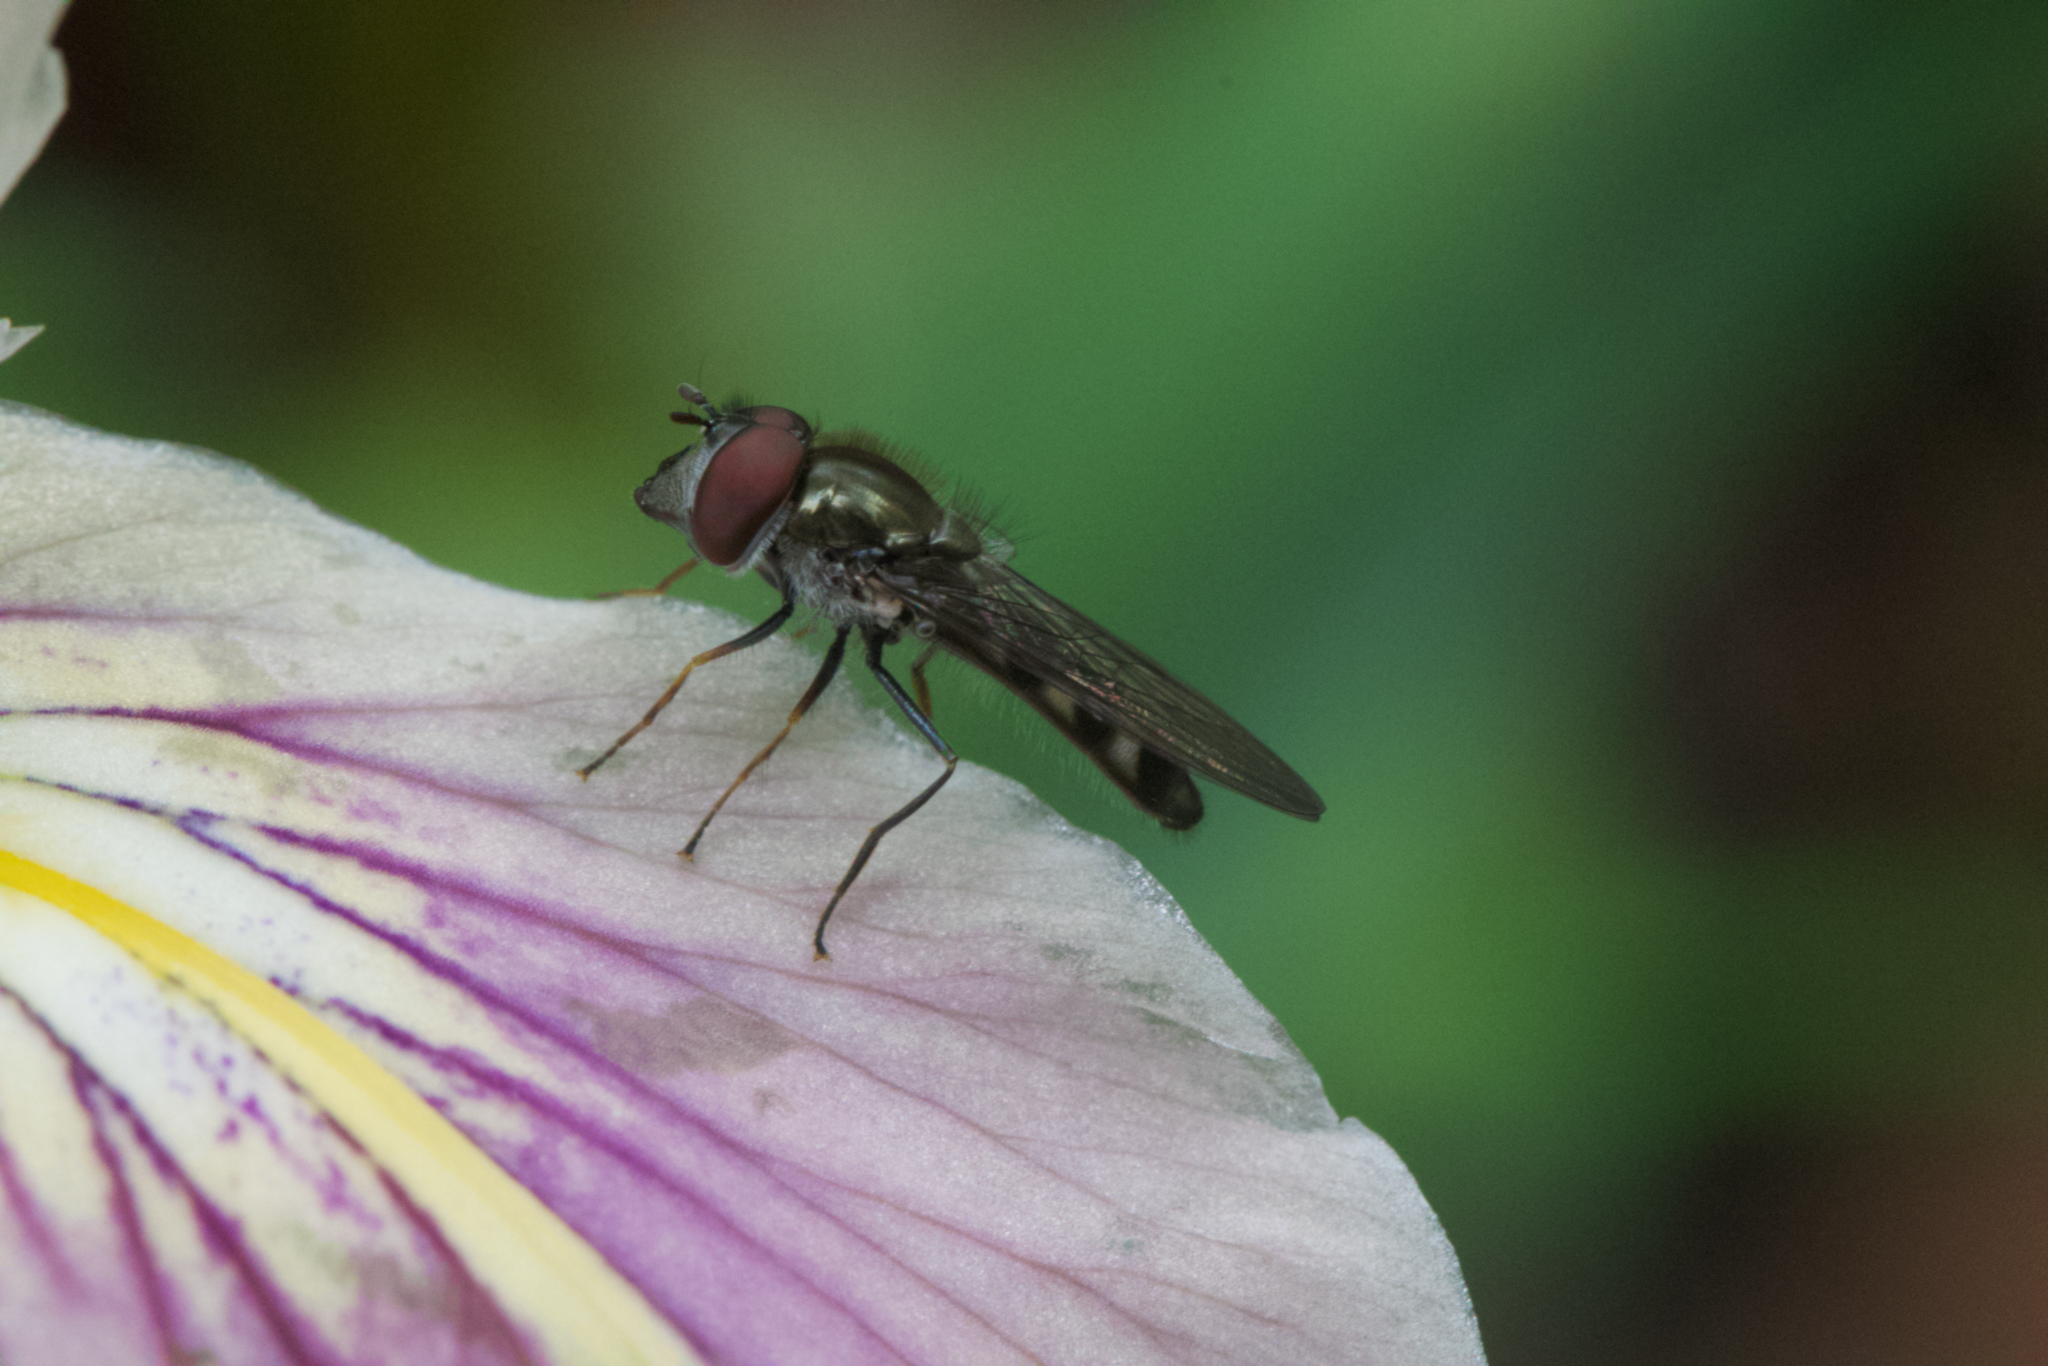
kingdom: Animalia
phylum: Arthropoda
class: Insecta
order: Diptera
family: Syrphidae
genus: Platycheirus
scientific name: Platycheirus trichopus
